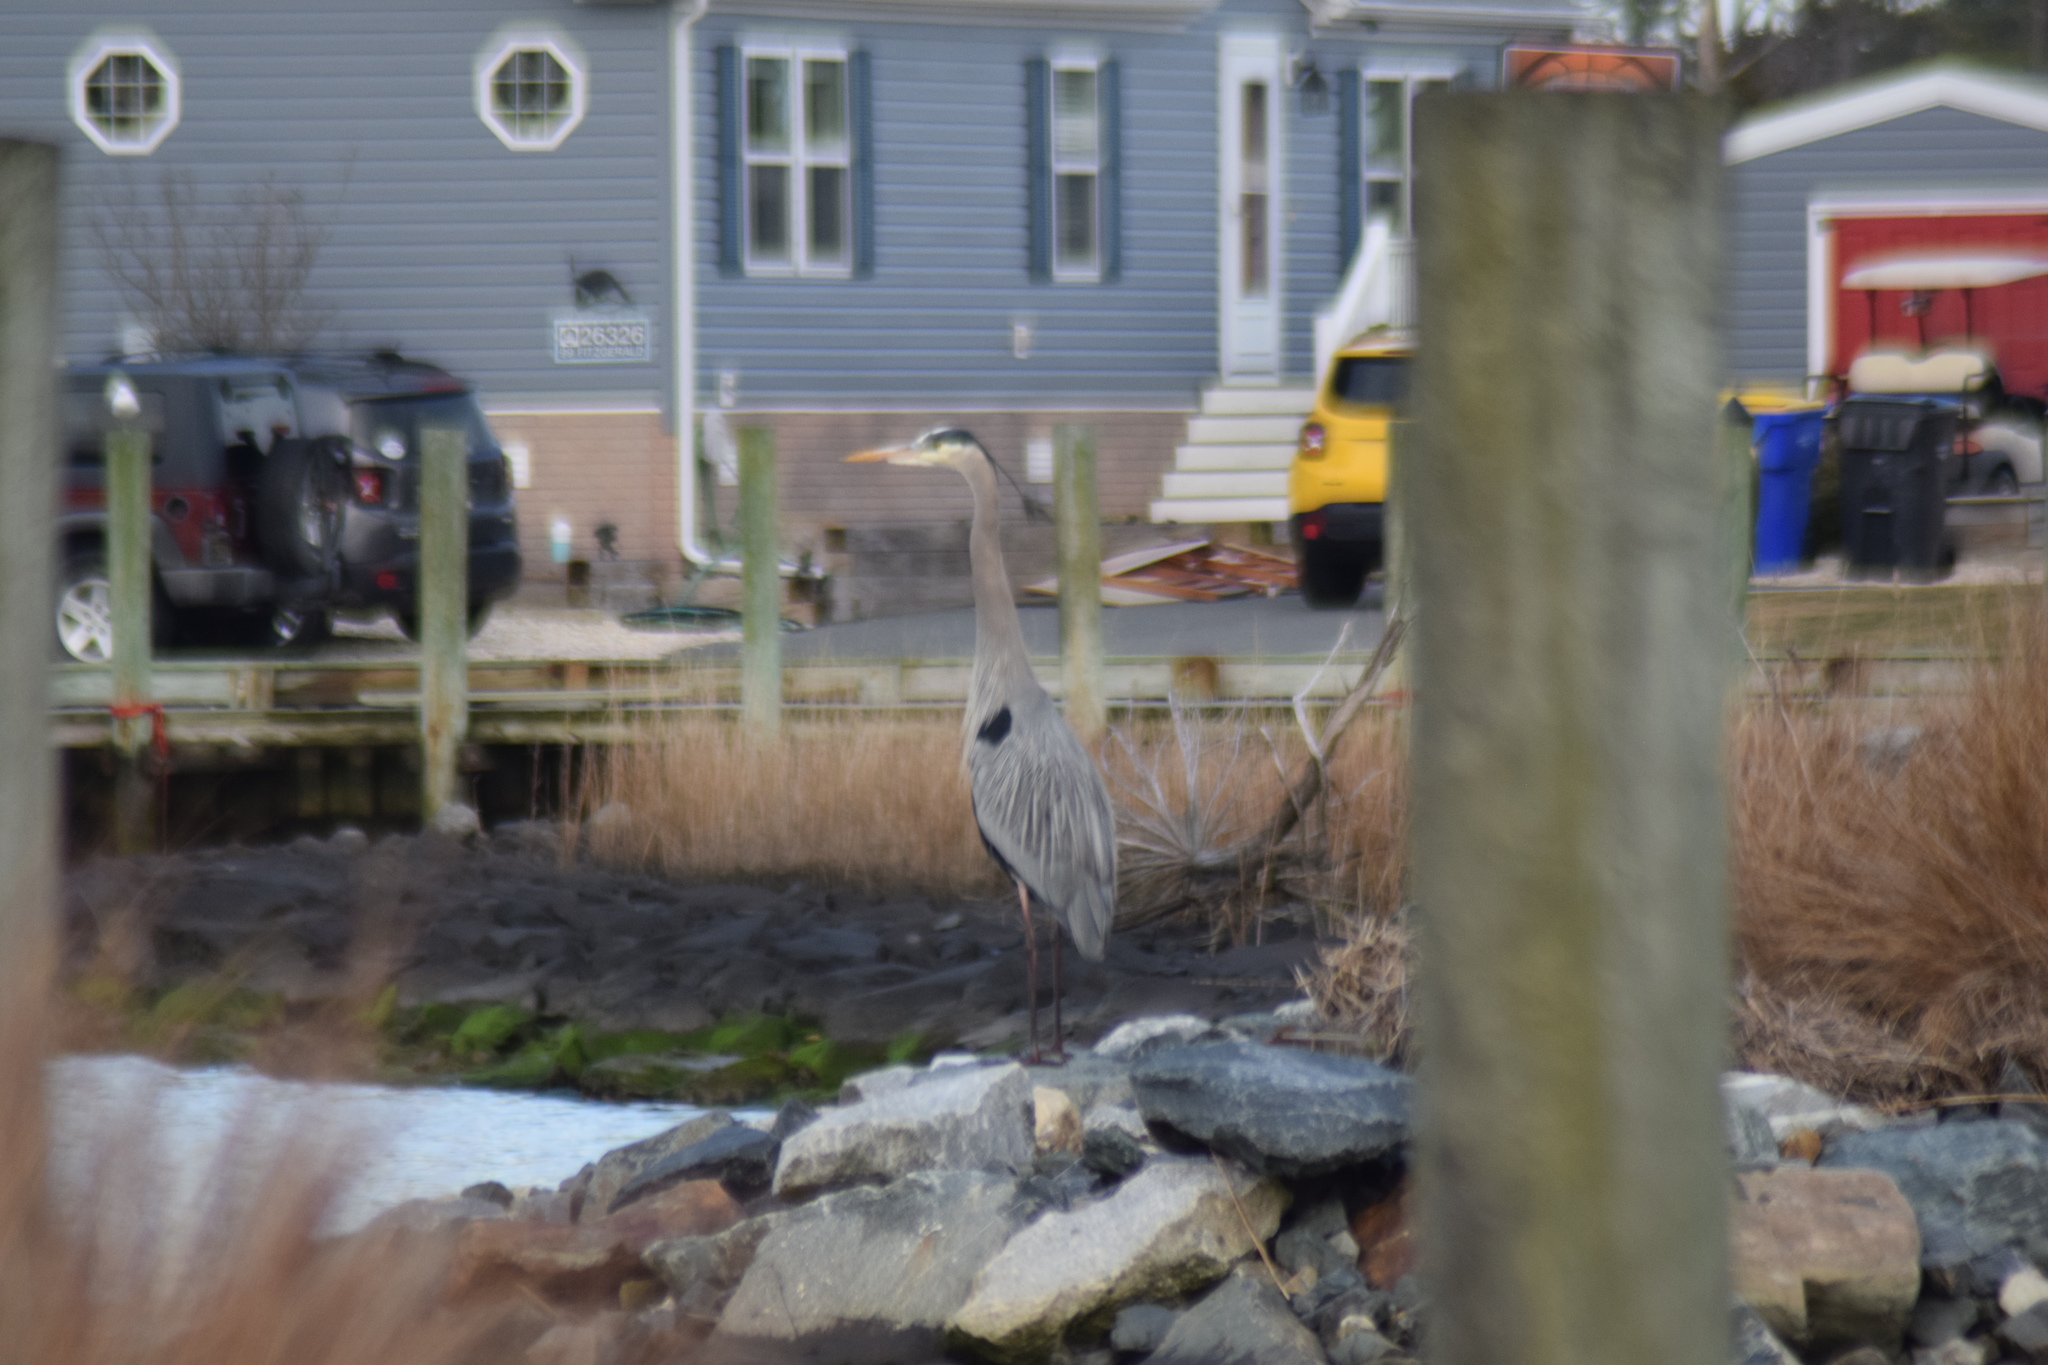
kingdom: Animalia
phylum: Chordata
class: Aves
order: Pelecaniformes
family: Ardeidae
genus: Ardea
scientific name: Ardea herodias
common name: Great blue heron
